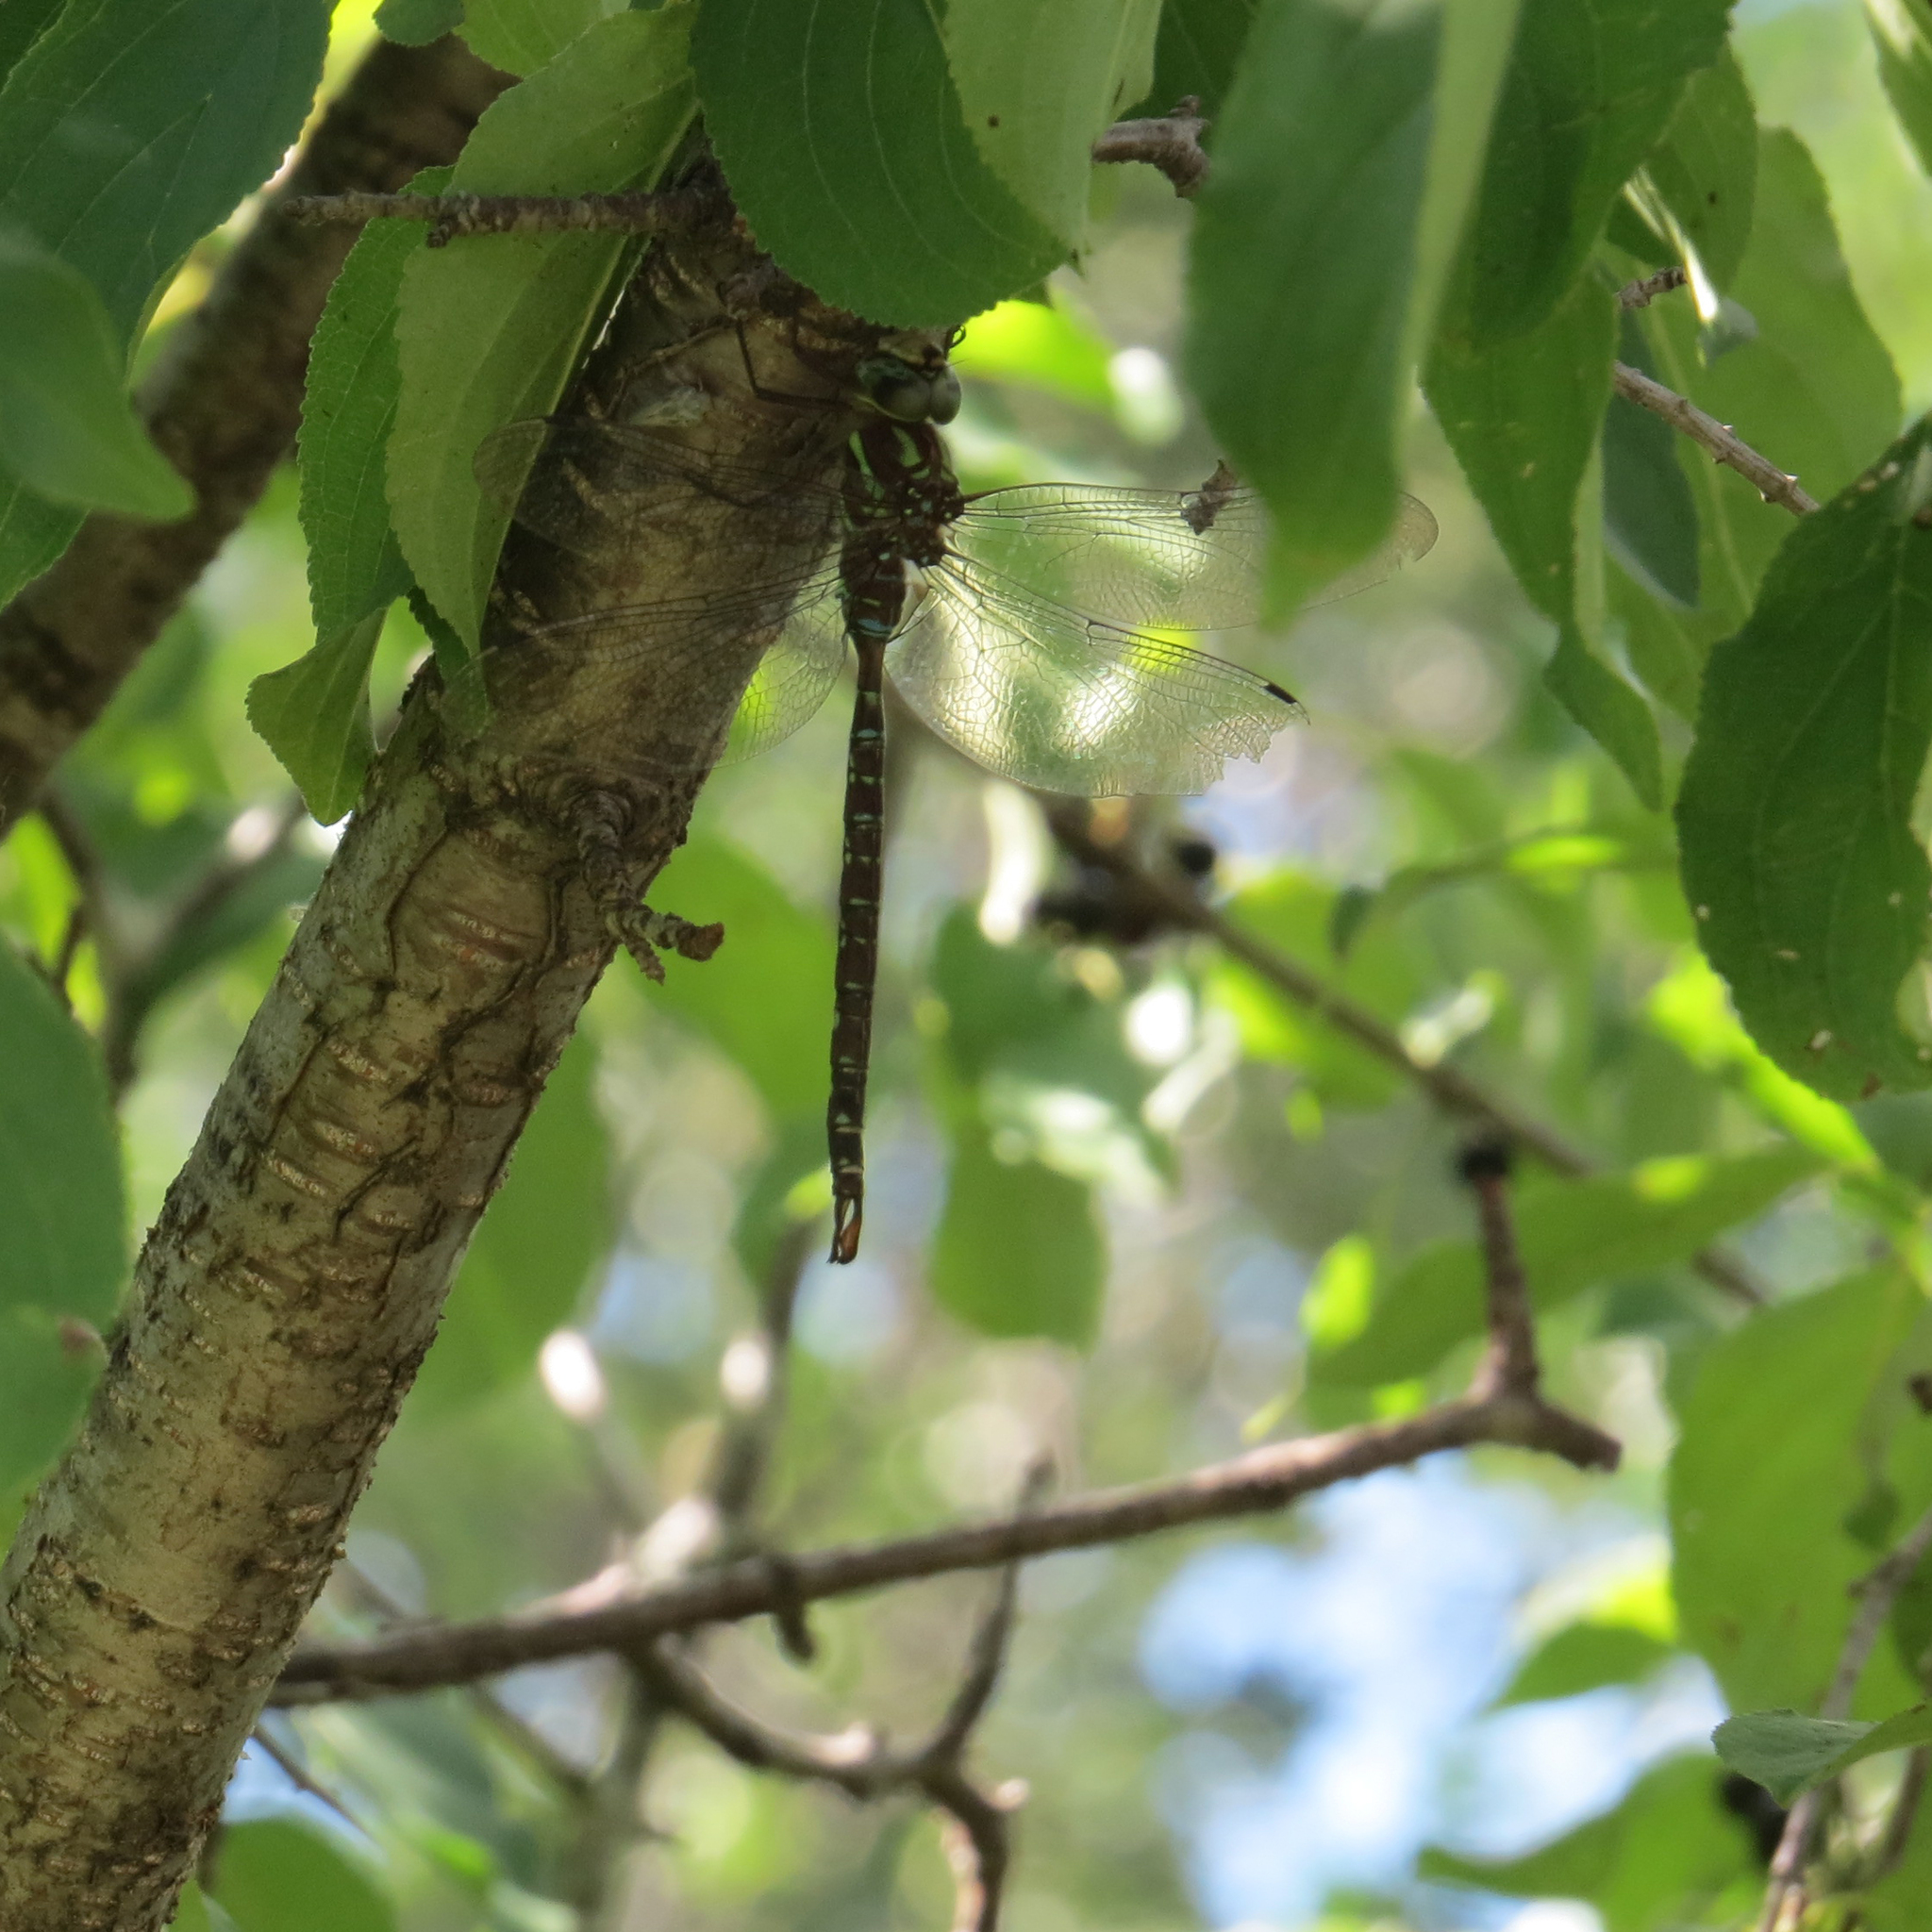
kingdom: Animalia
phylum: Arthropoda
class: Insecta
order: Odonata
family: Aeshnidae
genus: Aeshna
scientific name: Aeshna umbrosa
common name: Shadow darner
